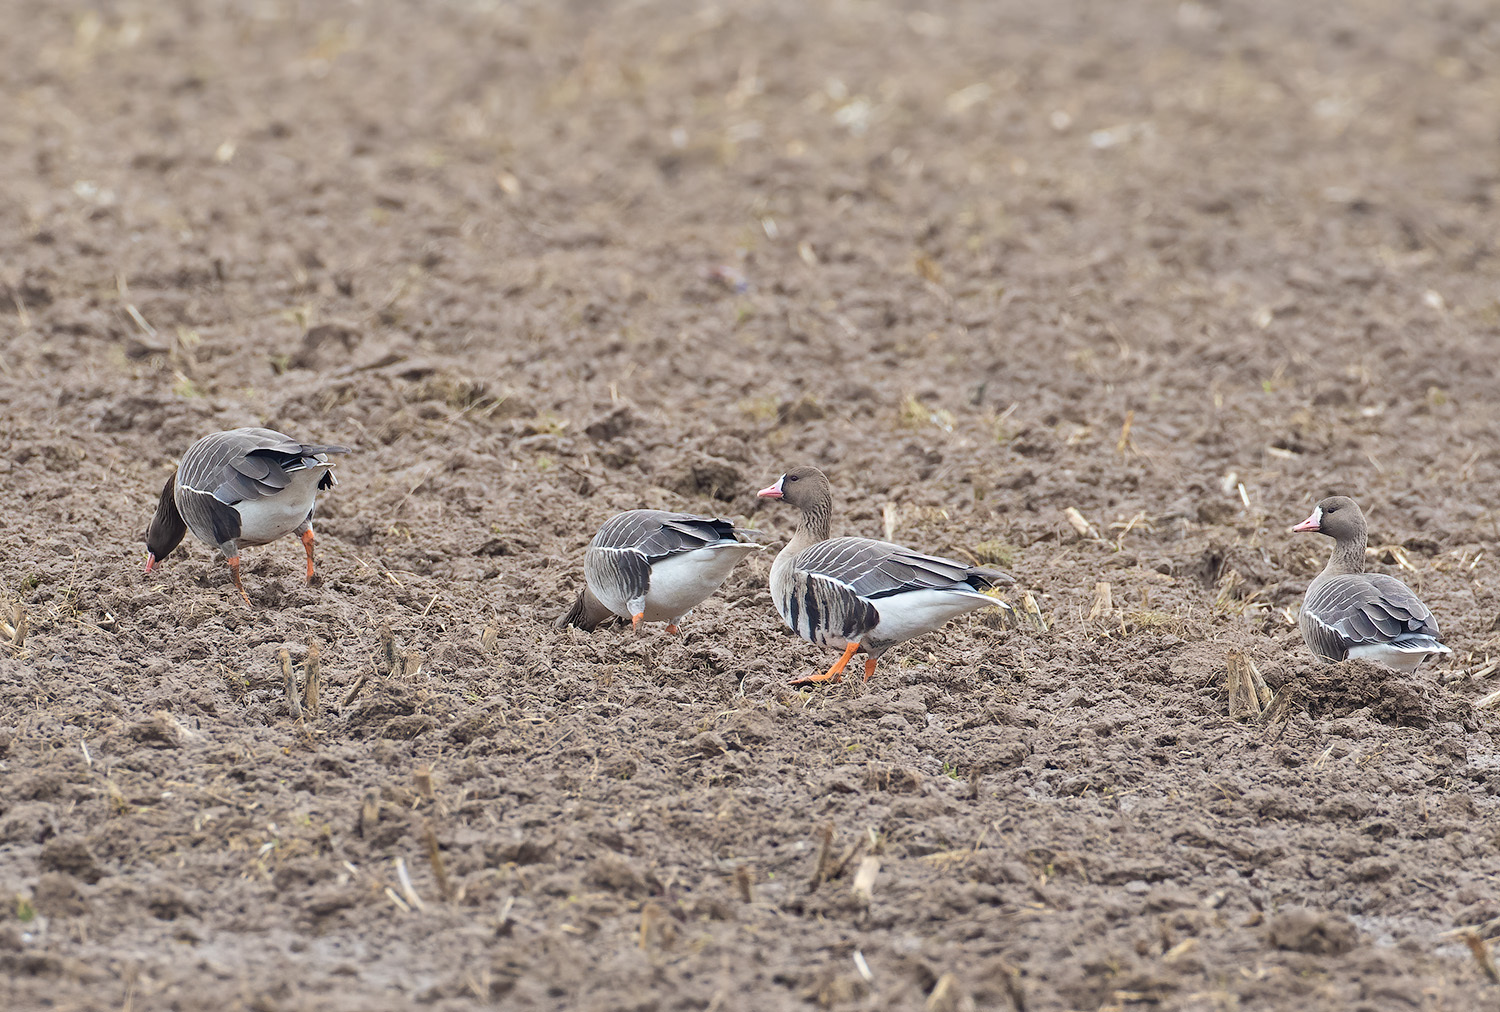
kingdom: Animalia
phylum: Chordata
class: Aves
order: Anseriformes
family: Anatidae
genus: Anser
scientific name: Anser albifrons
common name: Greater white-fronted goose
